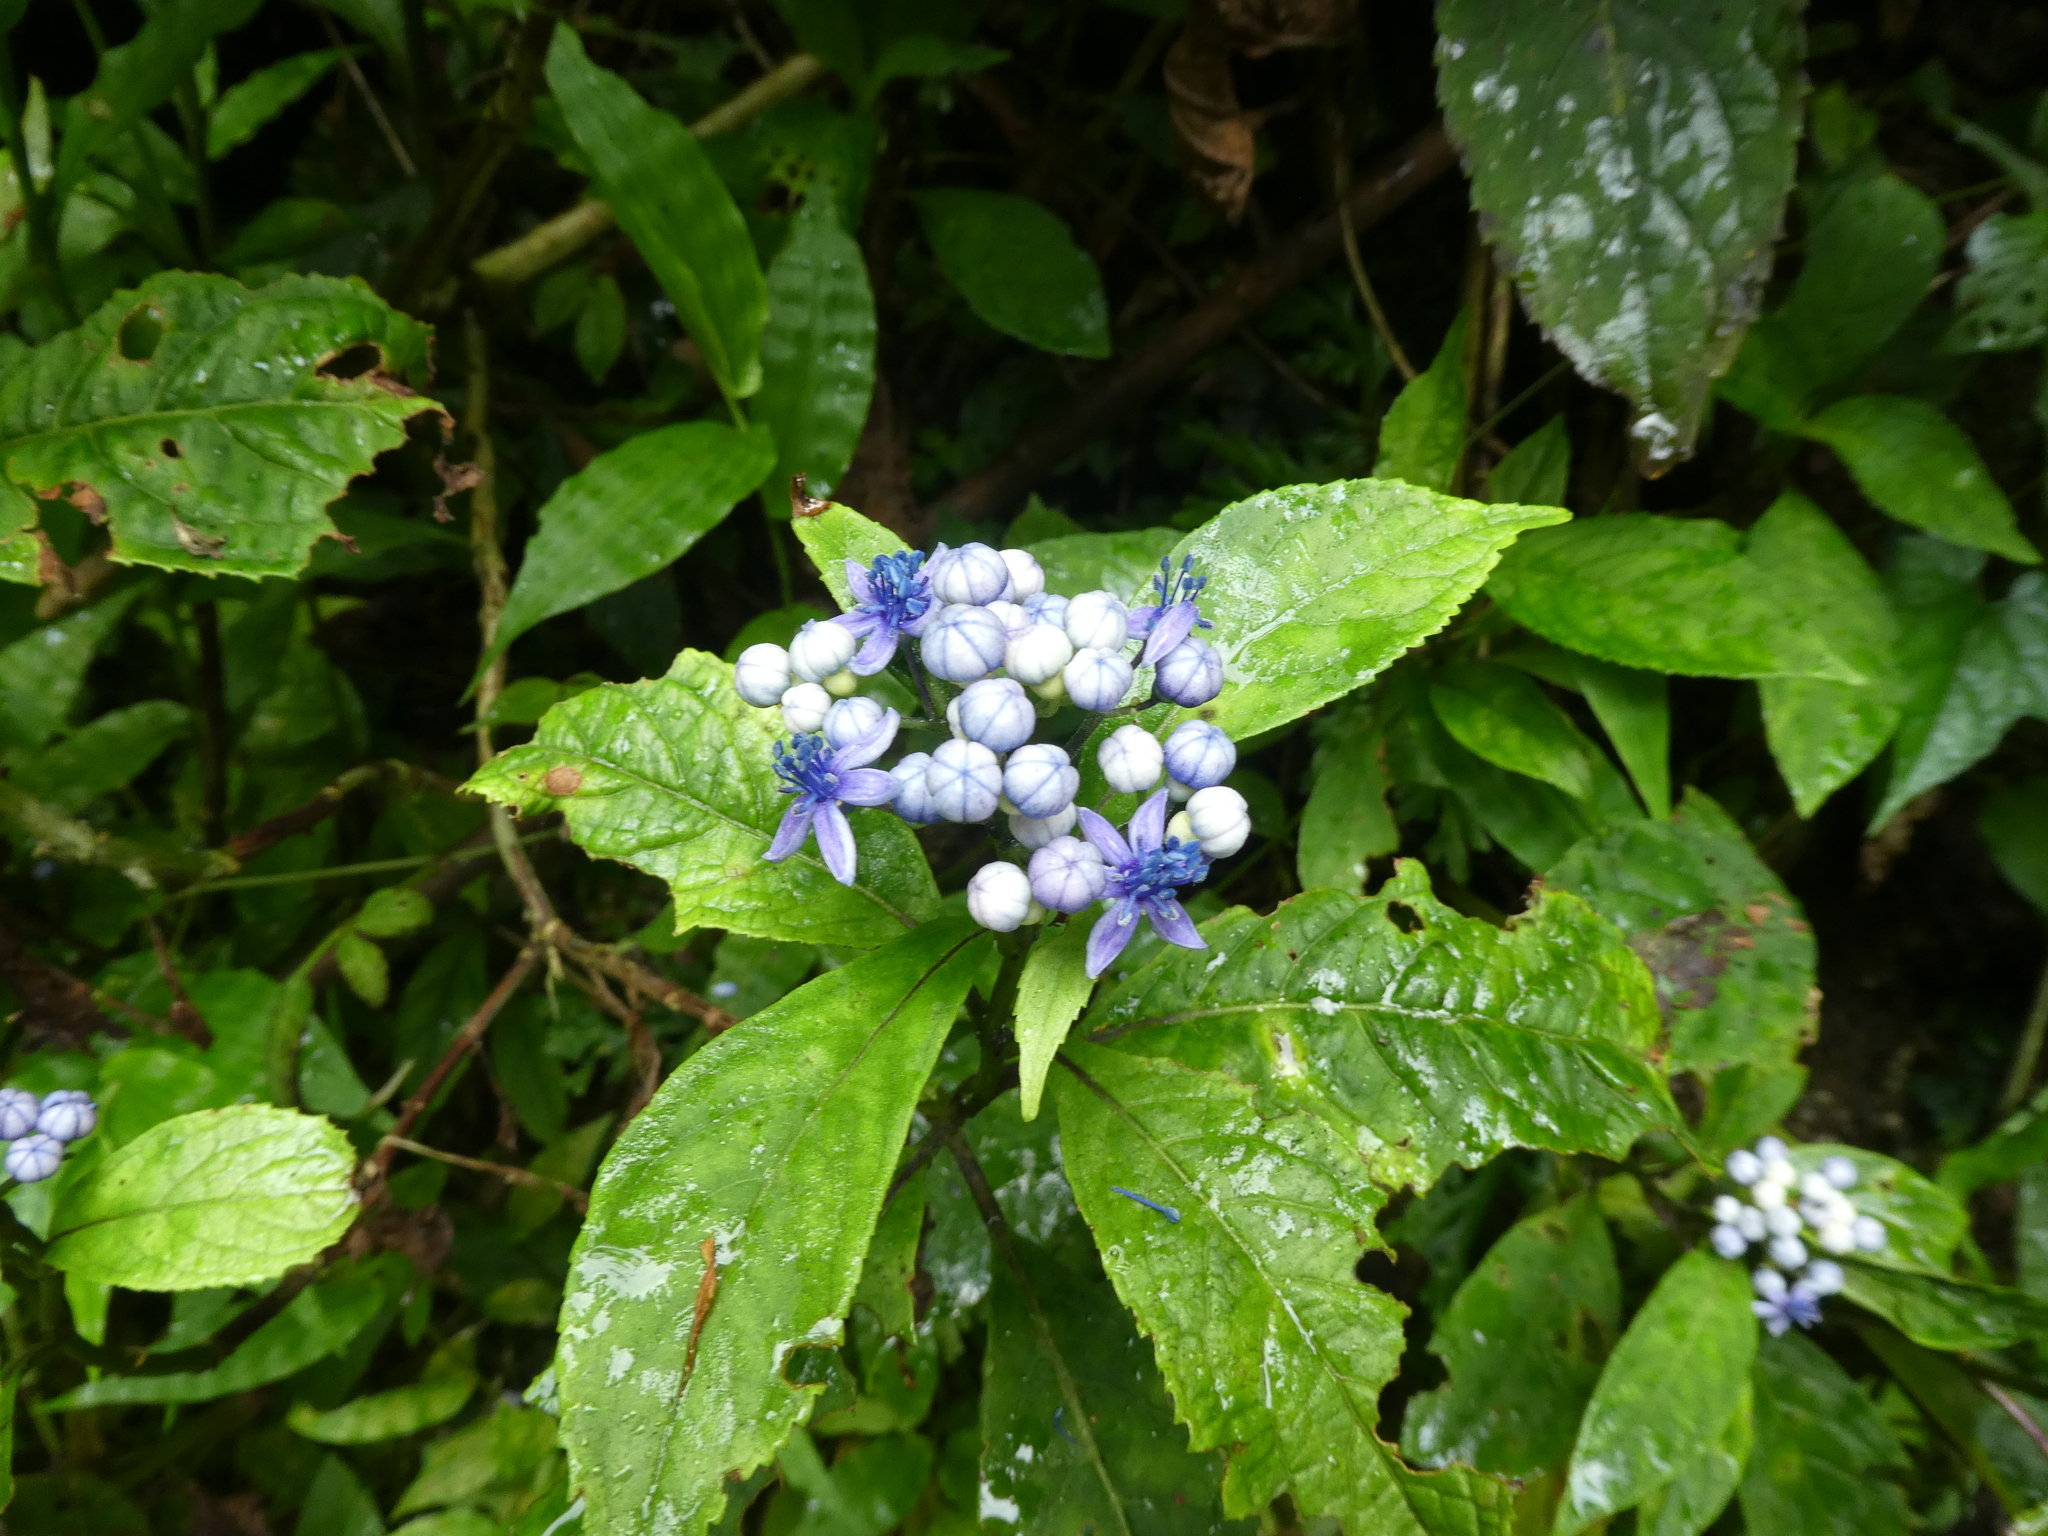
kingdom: Plantae
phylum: Tracheophyta
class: Magnoliopsida
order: Cornales
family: Hydrangeaceae
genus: Hydrangea
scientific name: Hydrangea febrifuga
